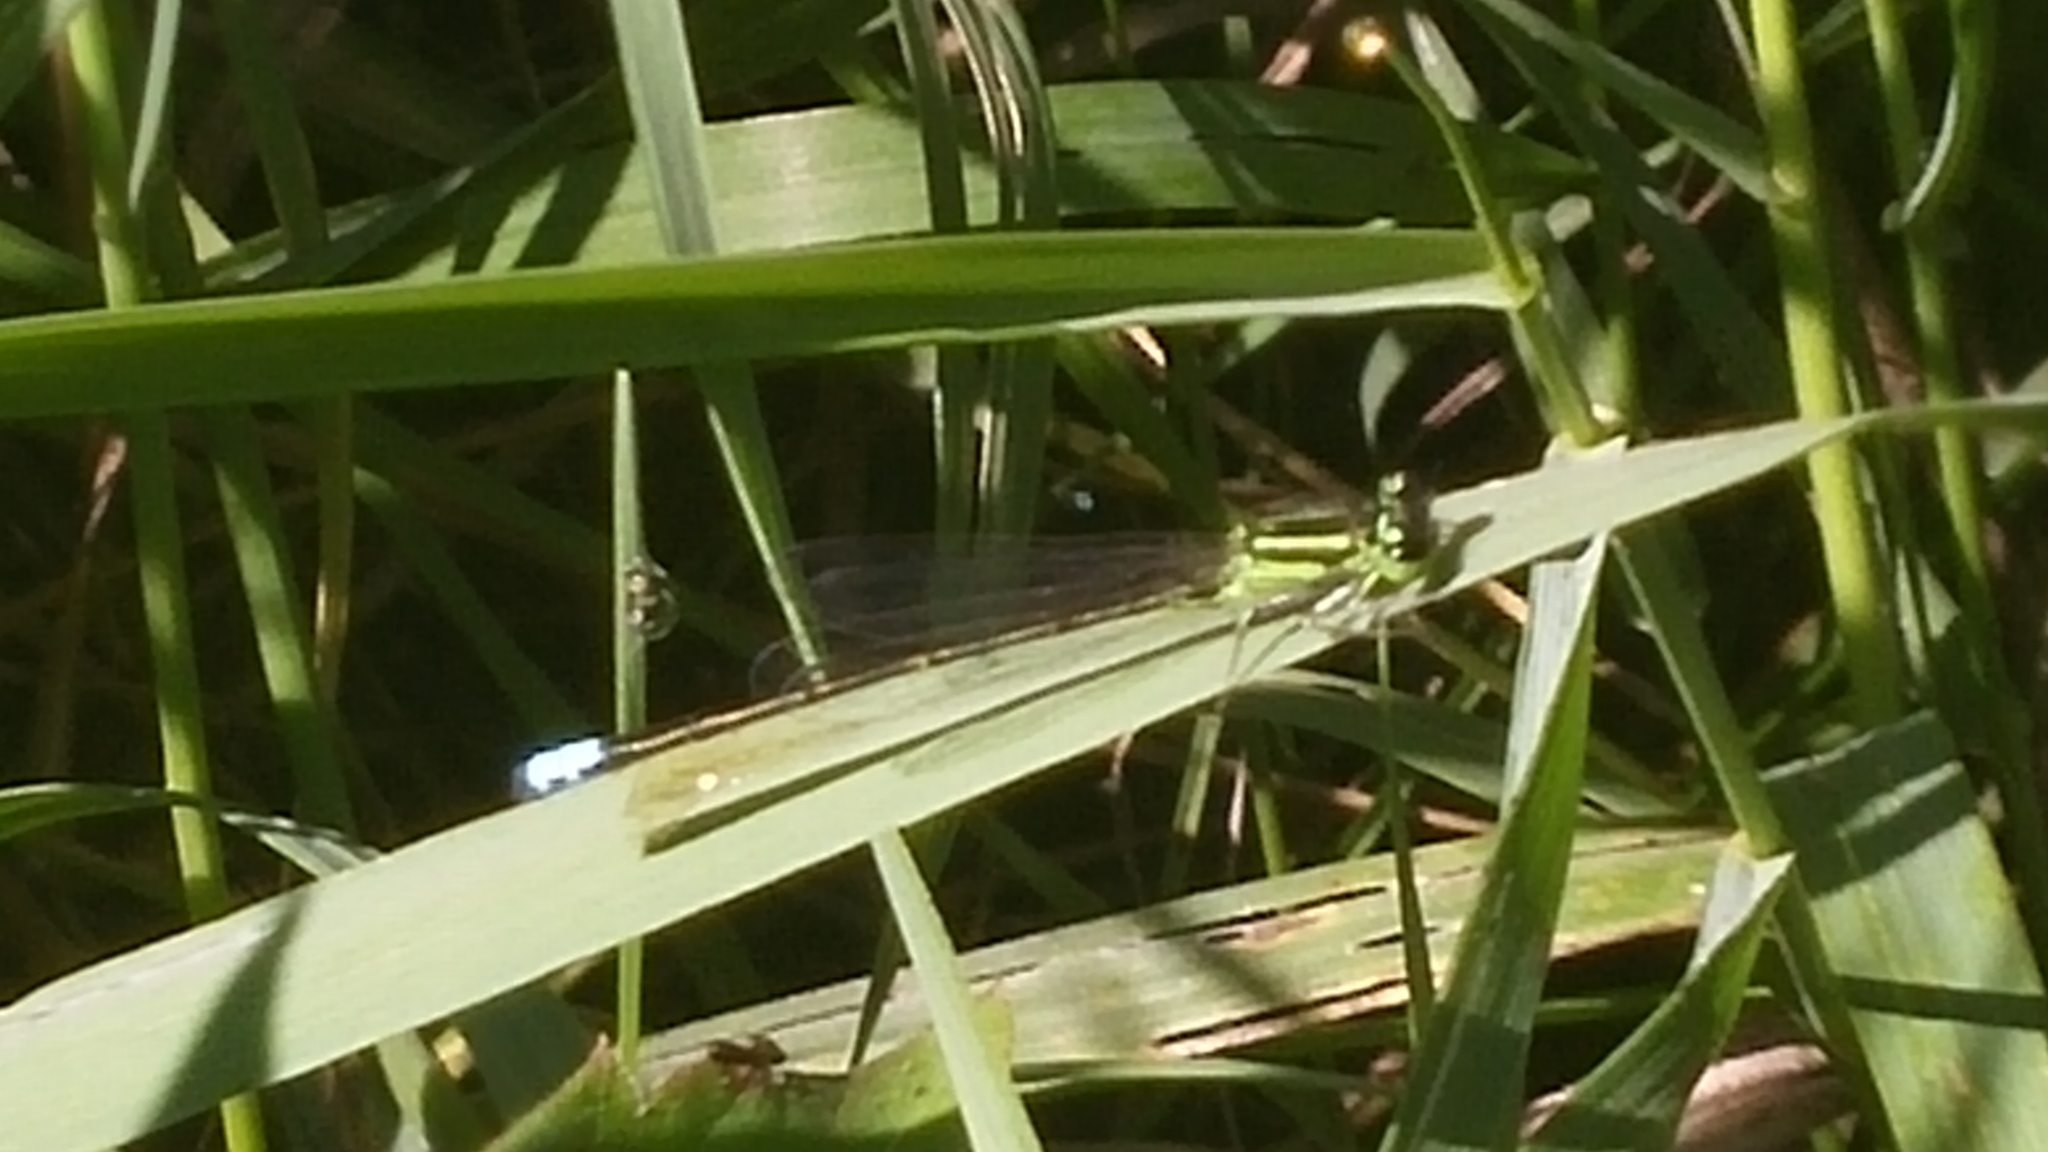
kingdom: Animalia
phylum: Arthropoda
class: Insecta
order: Odonata
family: Coenagrionidae
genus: Ischnura
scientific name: Ischnura verticalis
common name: Eastern forktail
